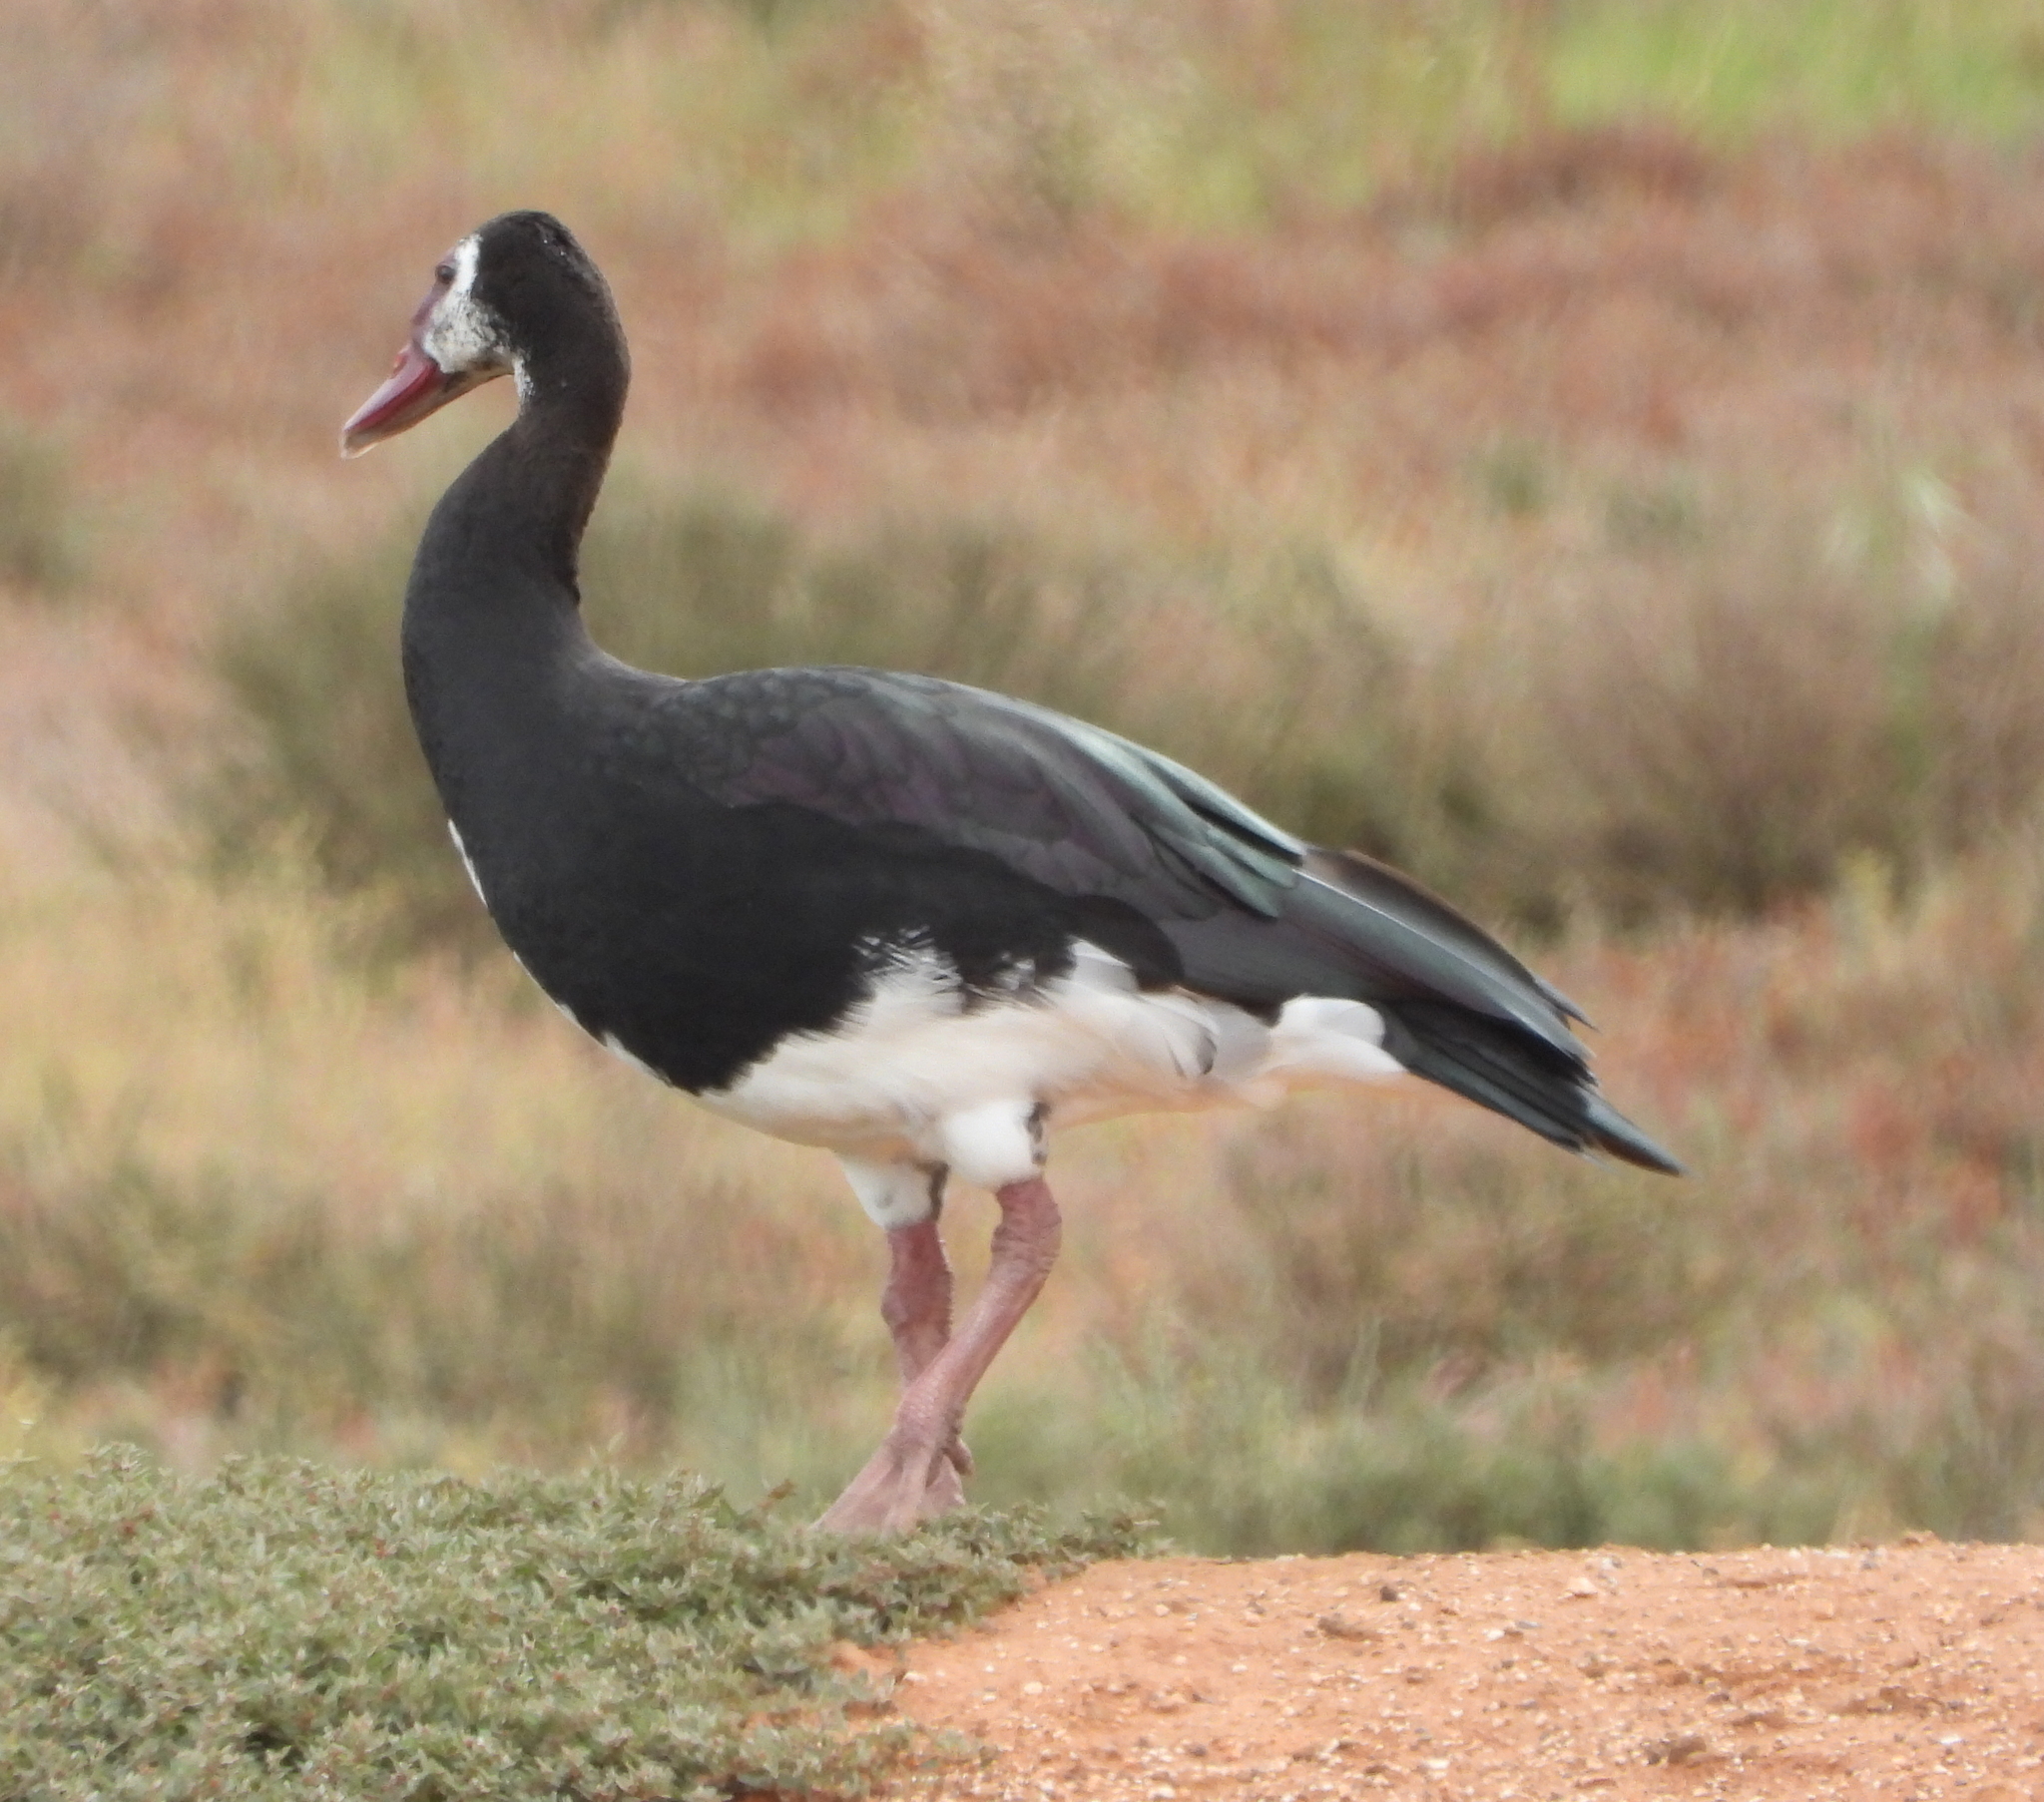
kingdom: Animalia
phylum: Chordata
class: Aves
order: Anseriformes
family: Anatidae
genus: Plectropterus
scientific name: Plectropterus gambensis
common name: Spur-winged goose
